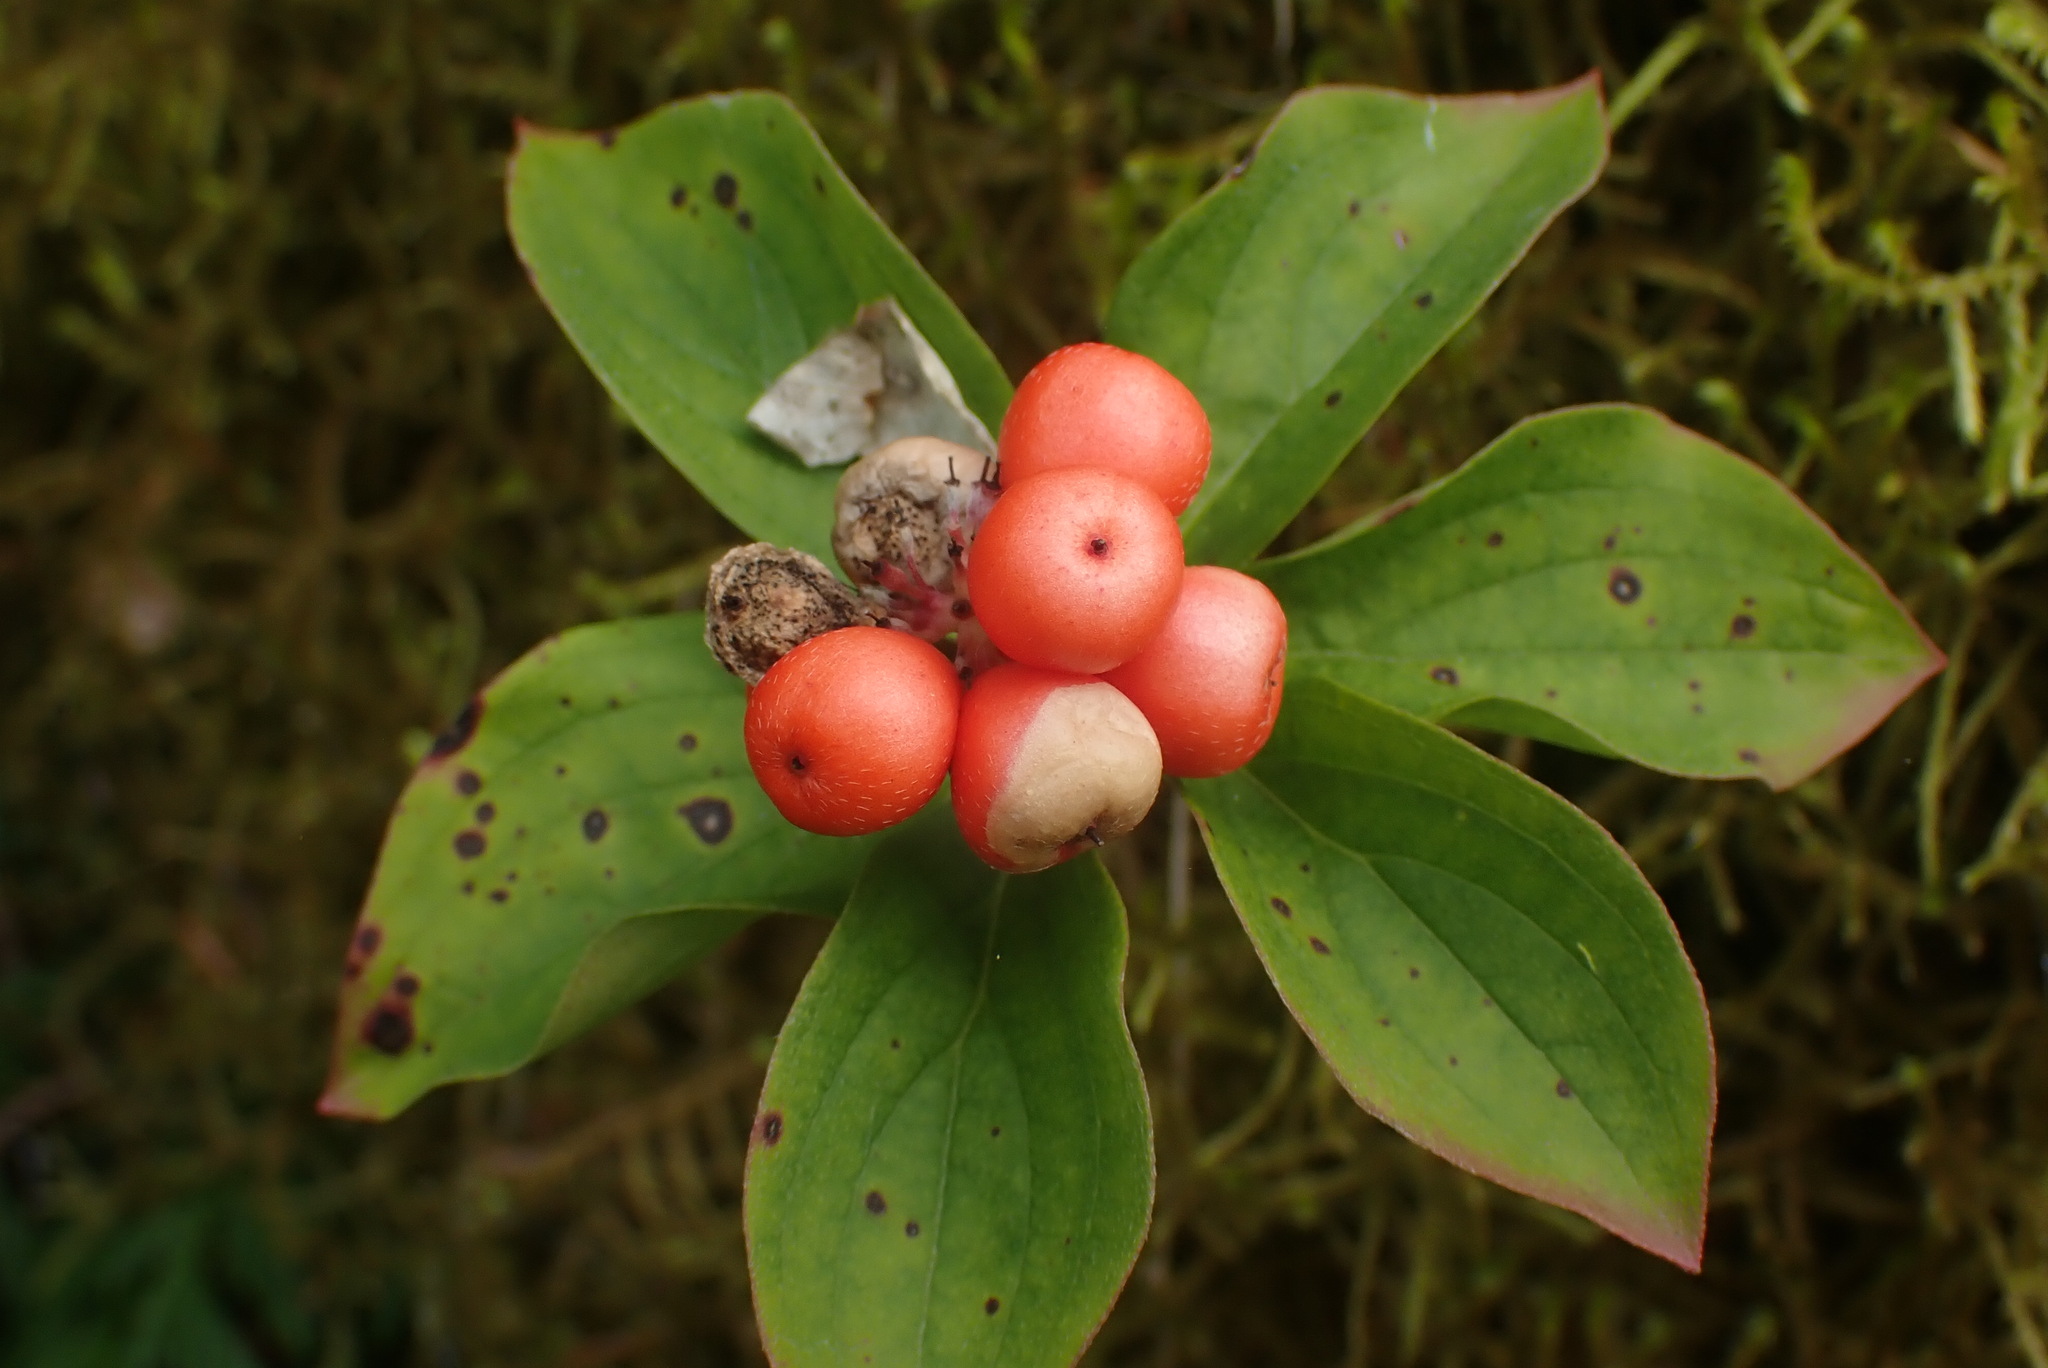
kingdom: Plantae
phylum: Tracheophyta
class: Magnoliopsida
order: Cornales
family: Cornaceae
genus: Cornus
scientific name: Cornus unalaschkensis
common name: Alaska bunchberry
